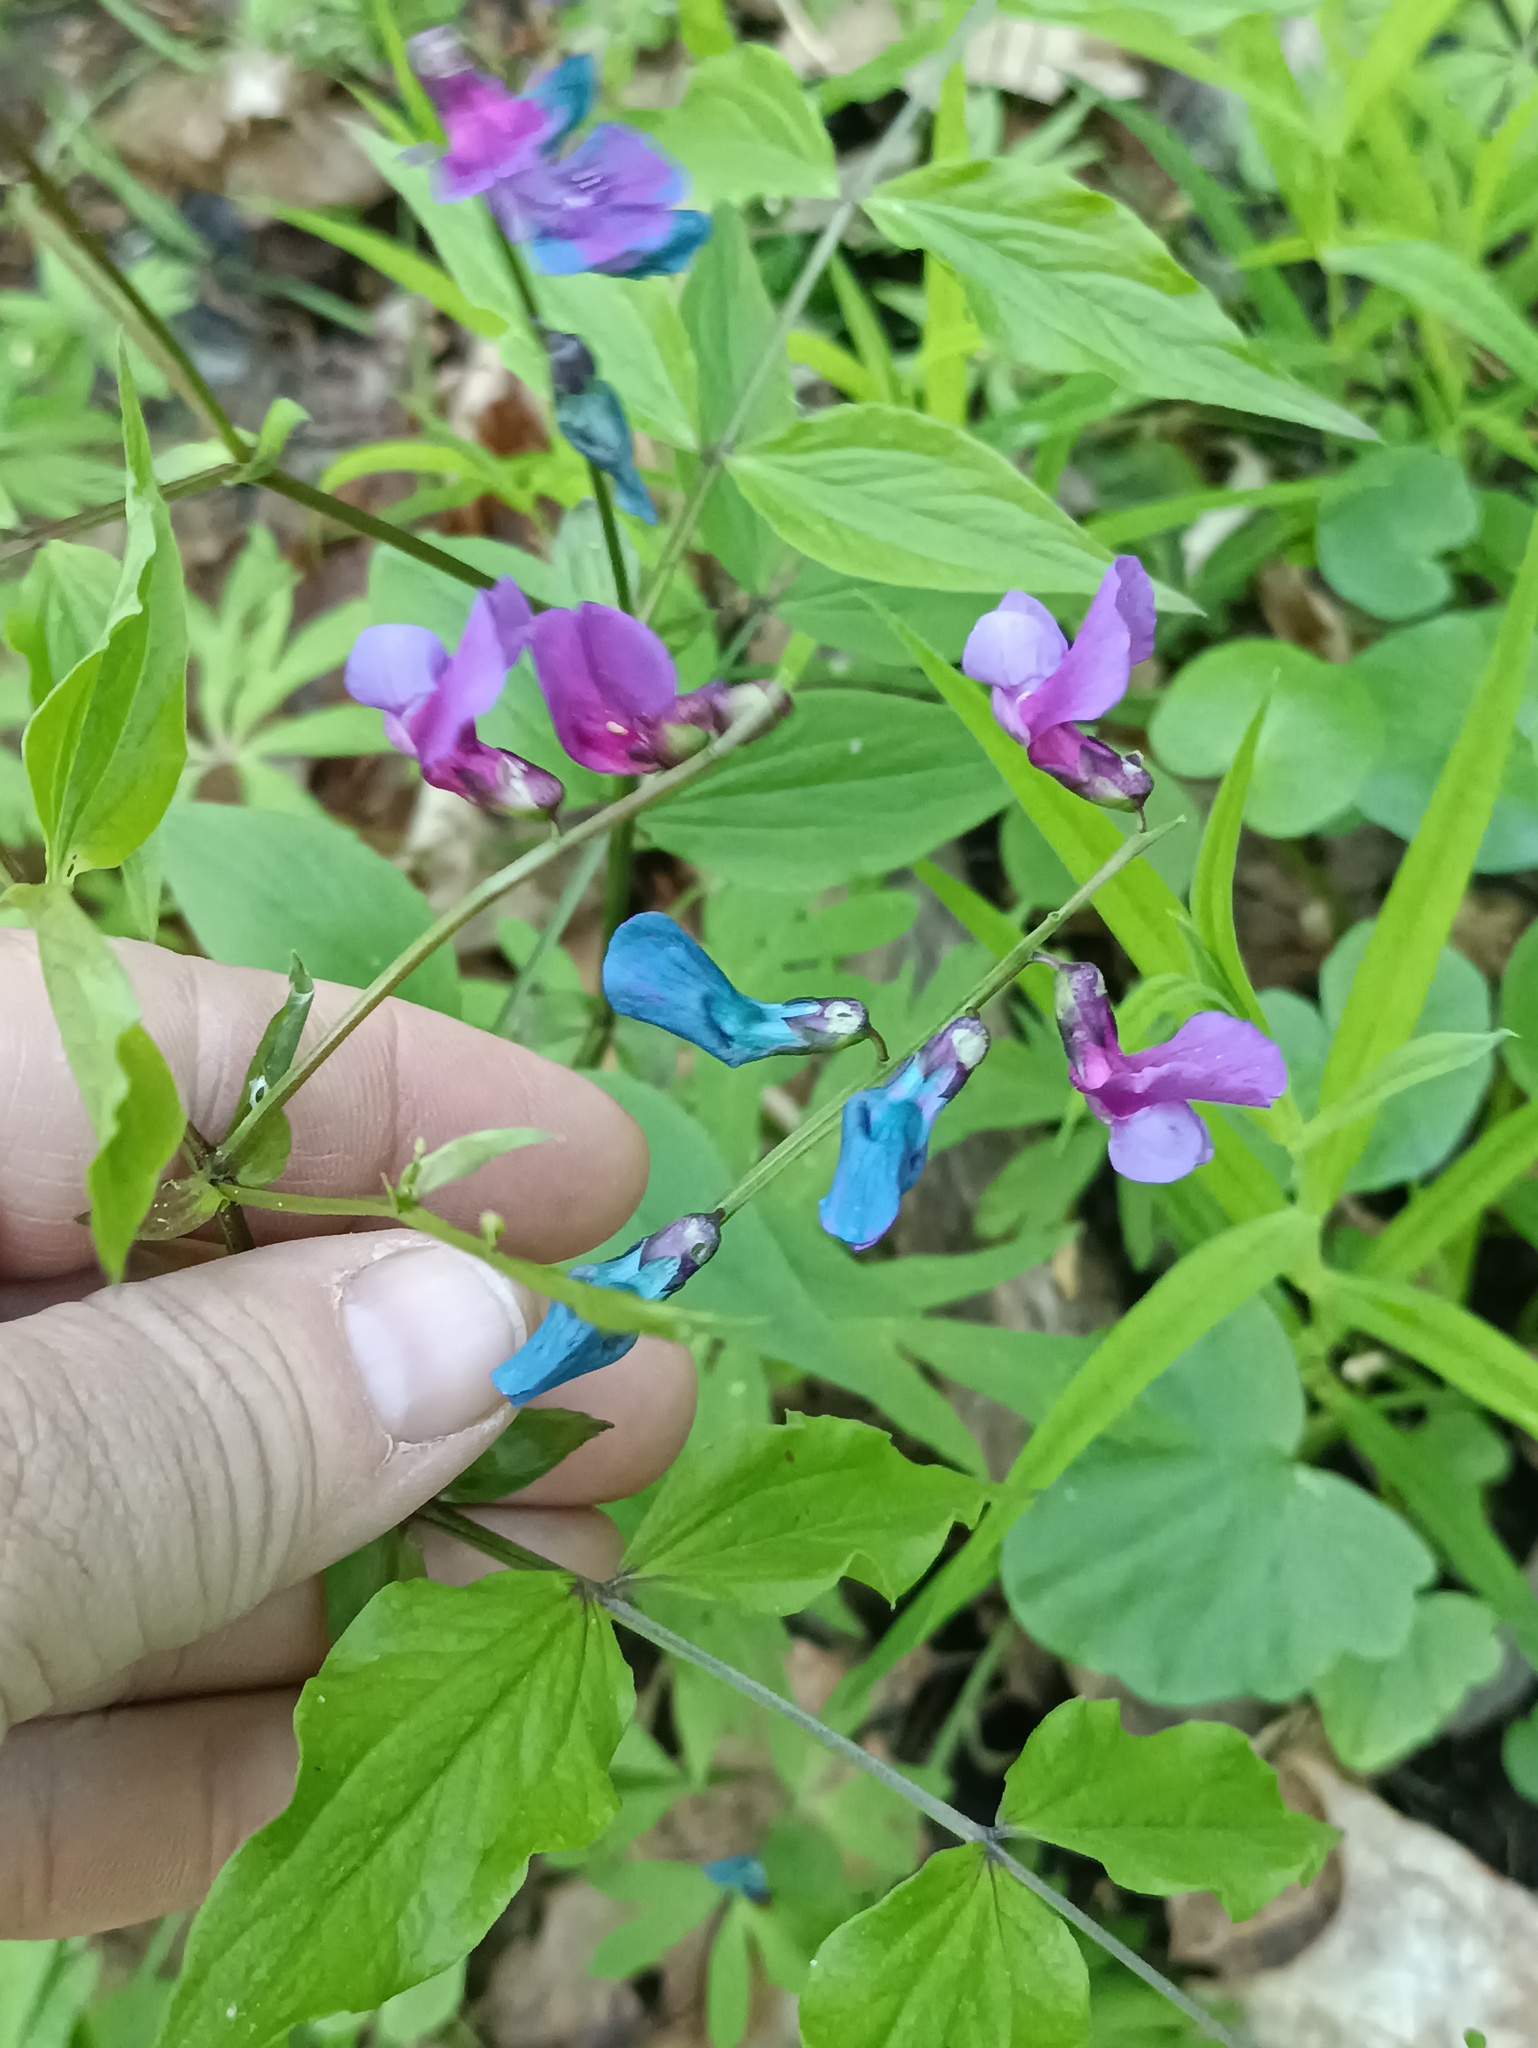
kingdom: Plantae
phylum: Tracheophyta
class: Magnoliopsida
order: Fabales
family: Fabaceae
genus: Lathyrus
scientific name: Lathyrus vernus
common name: Spring pea
